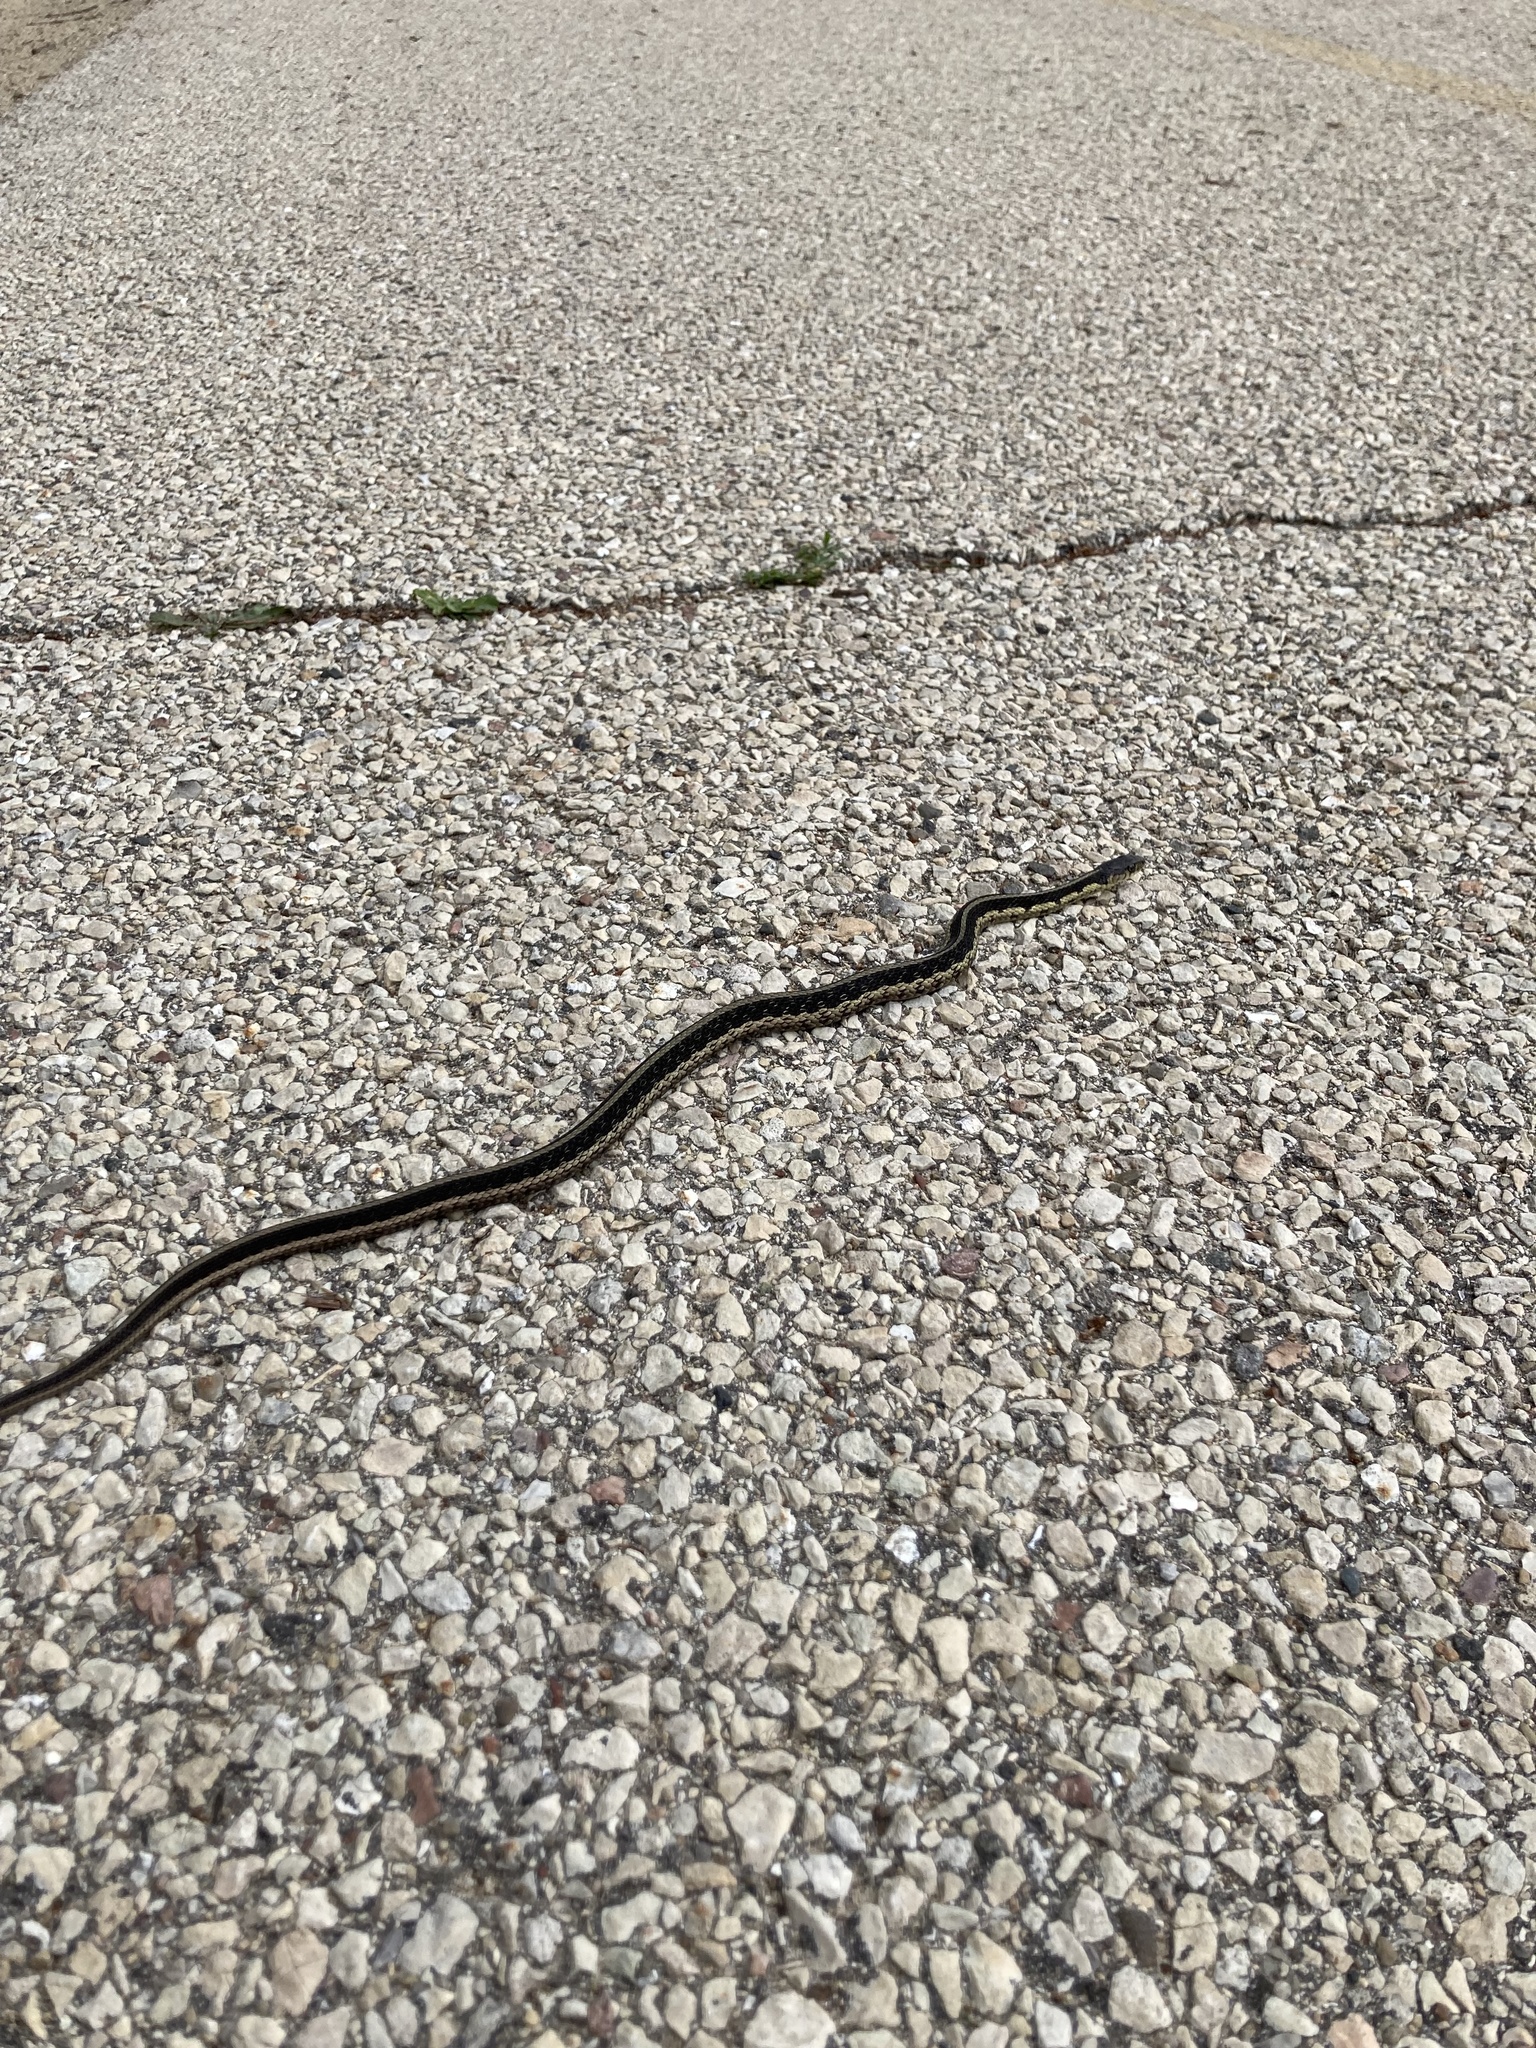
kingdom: Animalia
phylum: Chordata
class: Squamata
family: Colubridae
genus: Thamnophis
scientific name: Thamnophis sirtalis
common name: Common garter snake
